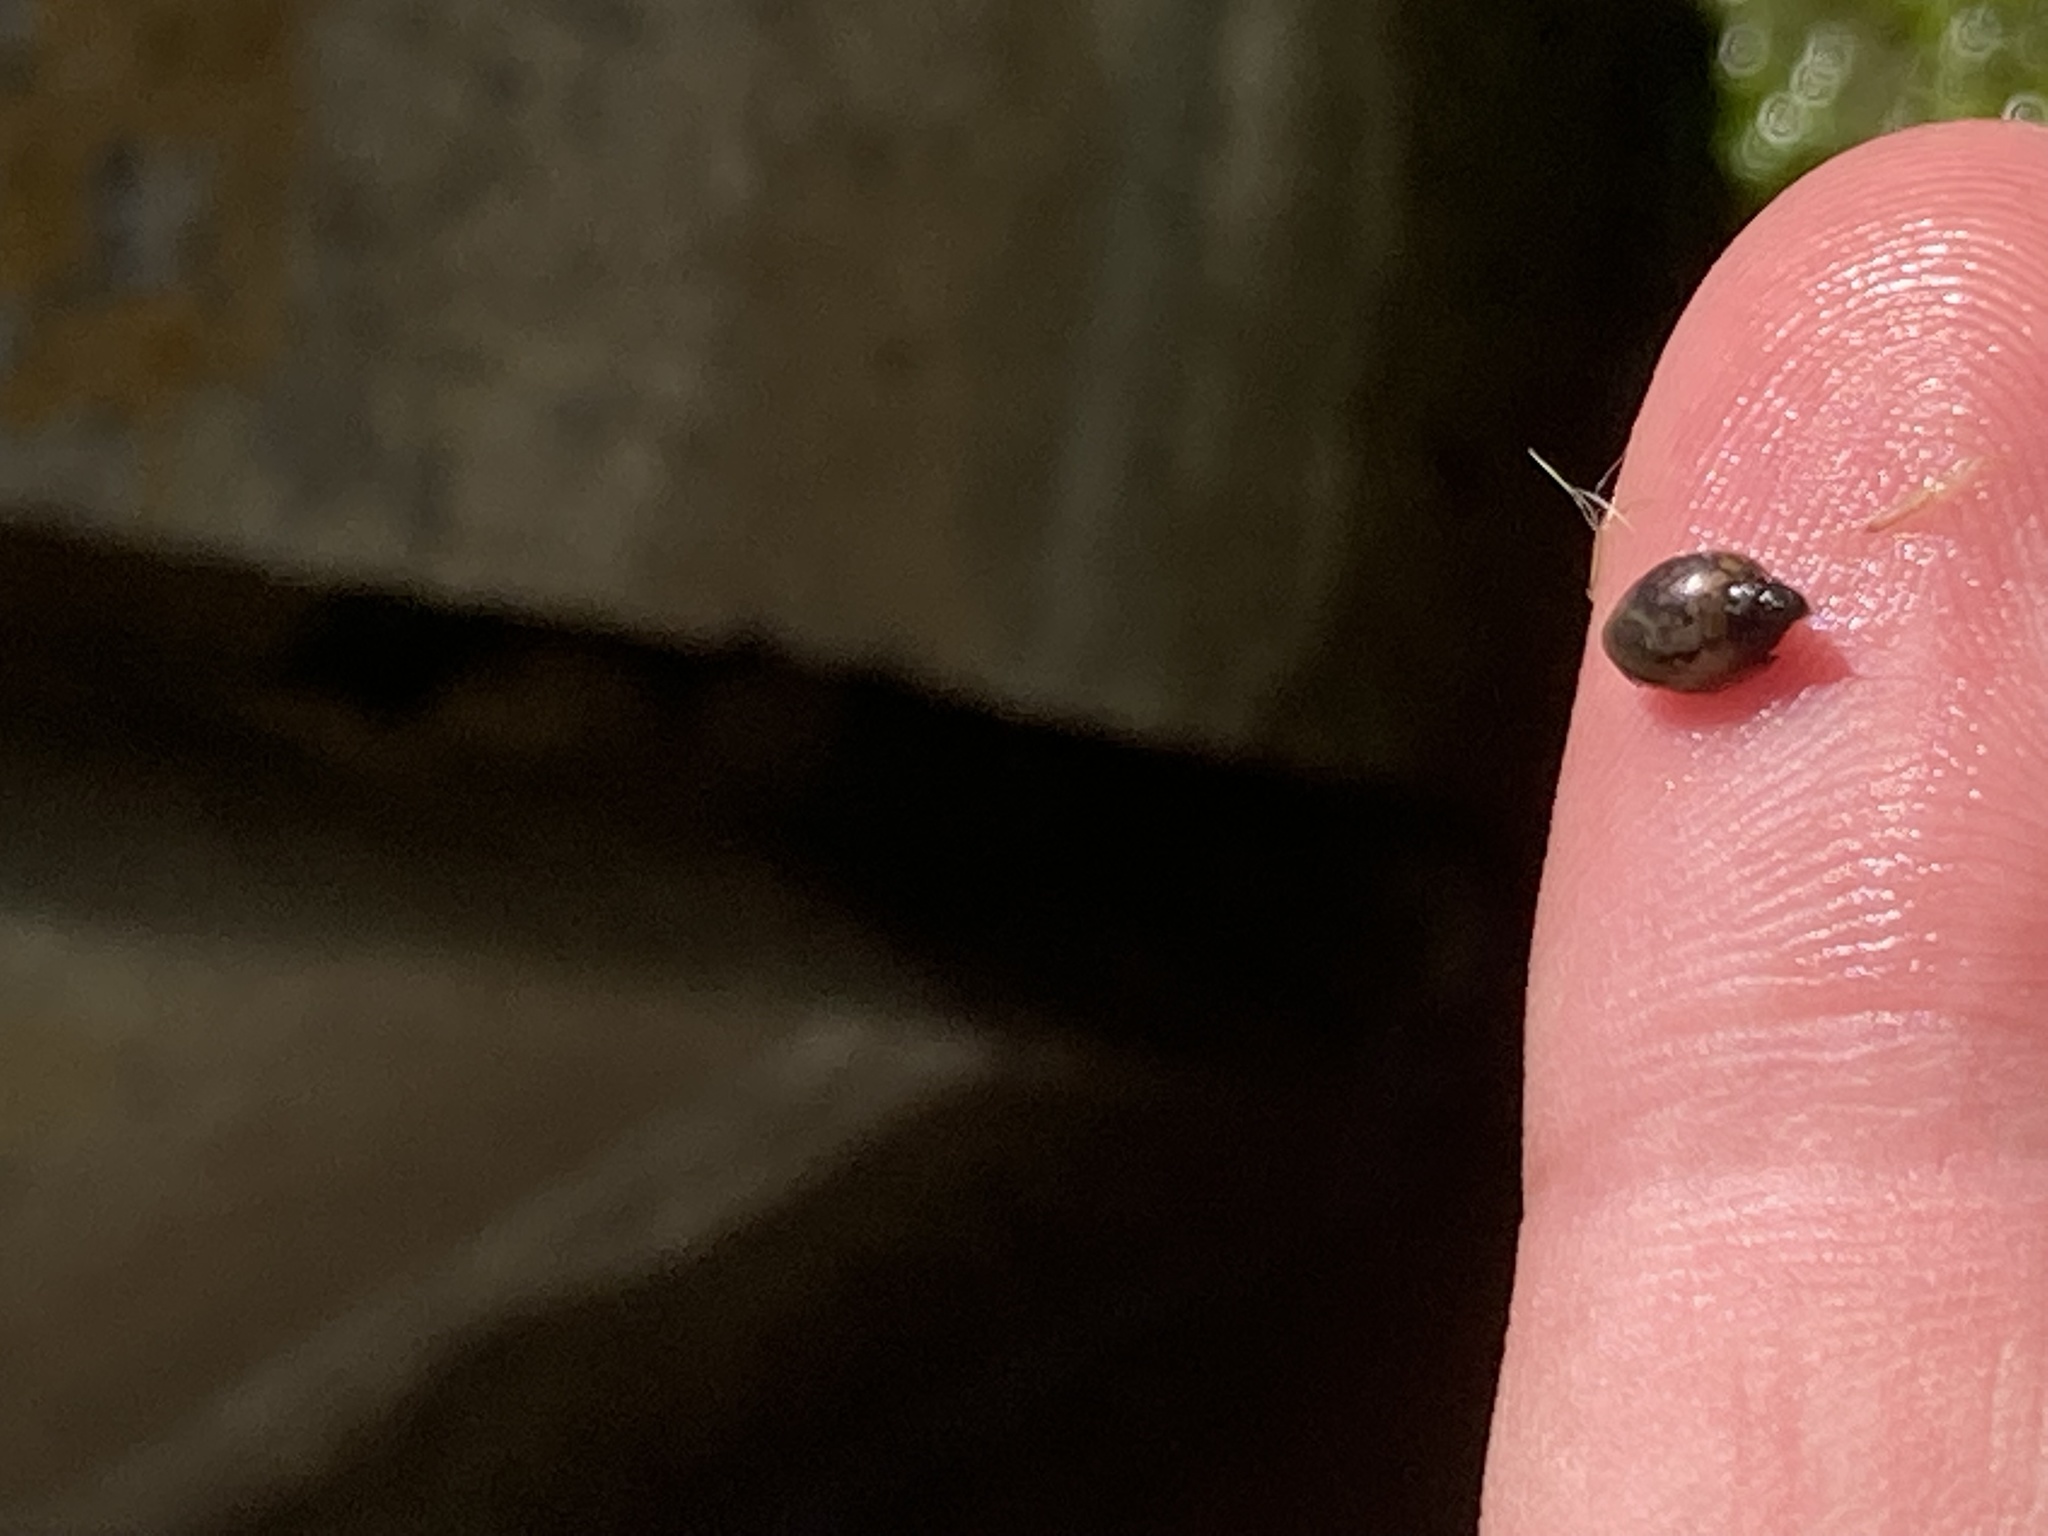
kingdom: Animalia
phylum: Mollusca
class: Gastropoda
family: Physidae
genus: Physella
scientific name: Physella acuta
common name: European physa
